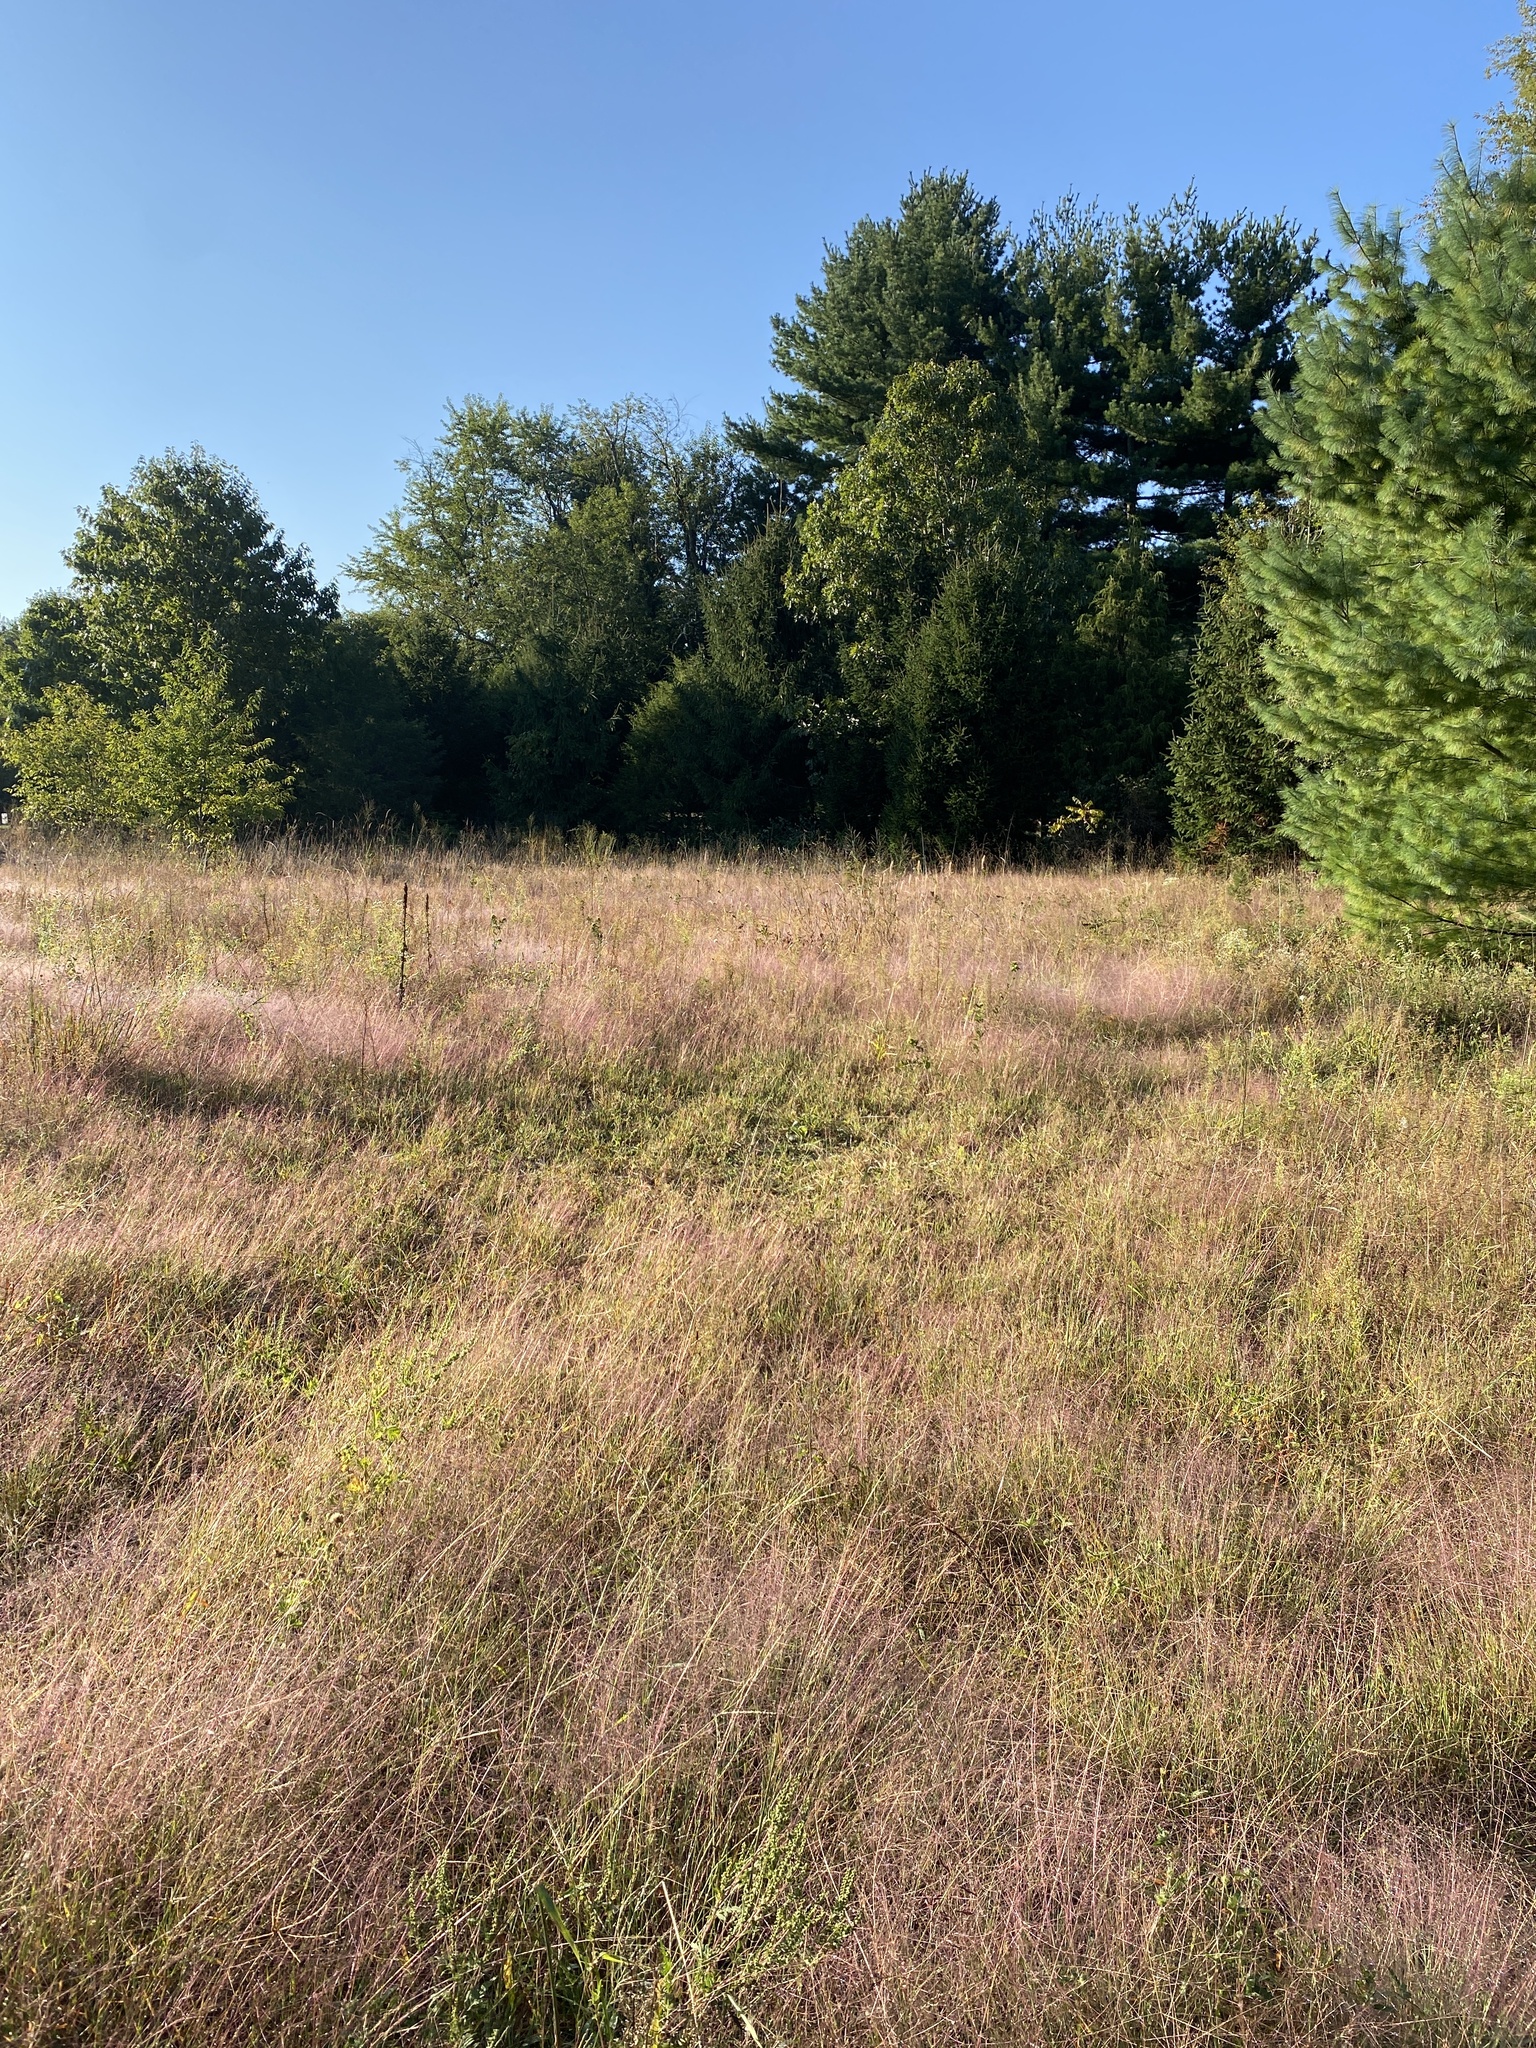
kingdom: Plantae
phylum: Tracheophyta
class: Liliopsida
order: Poales
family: Poaceae
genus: Digitaria
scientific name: Digitaria cognata
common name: Fall witchgrass
